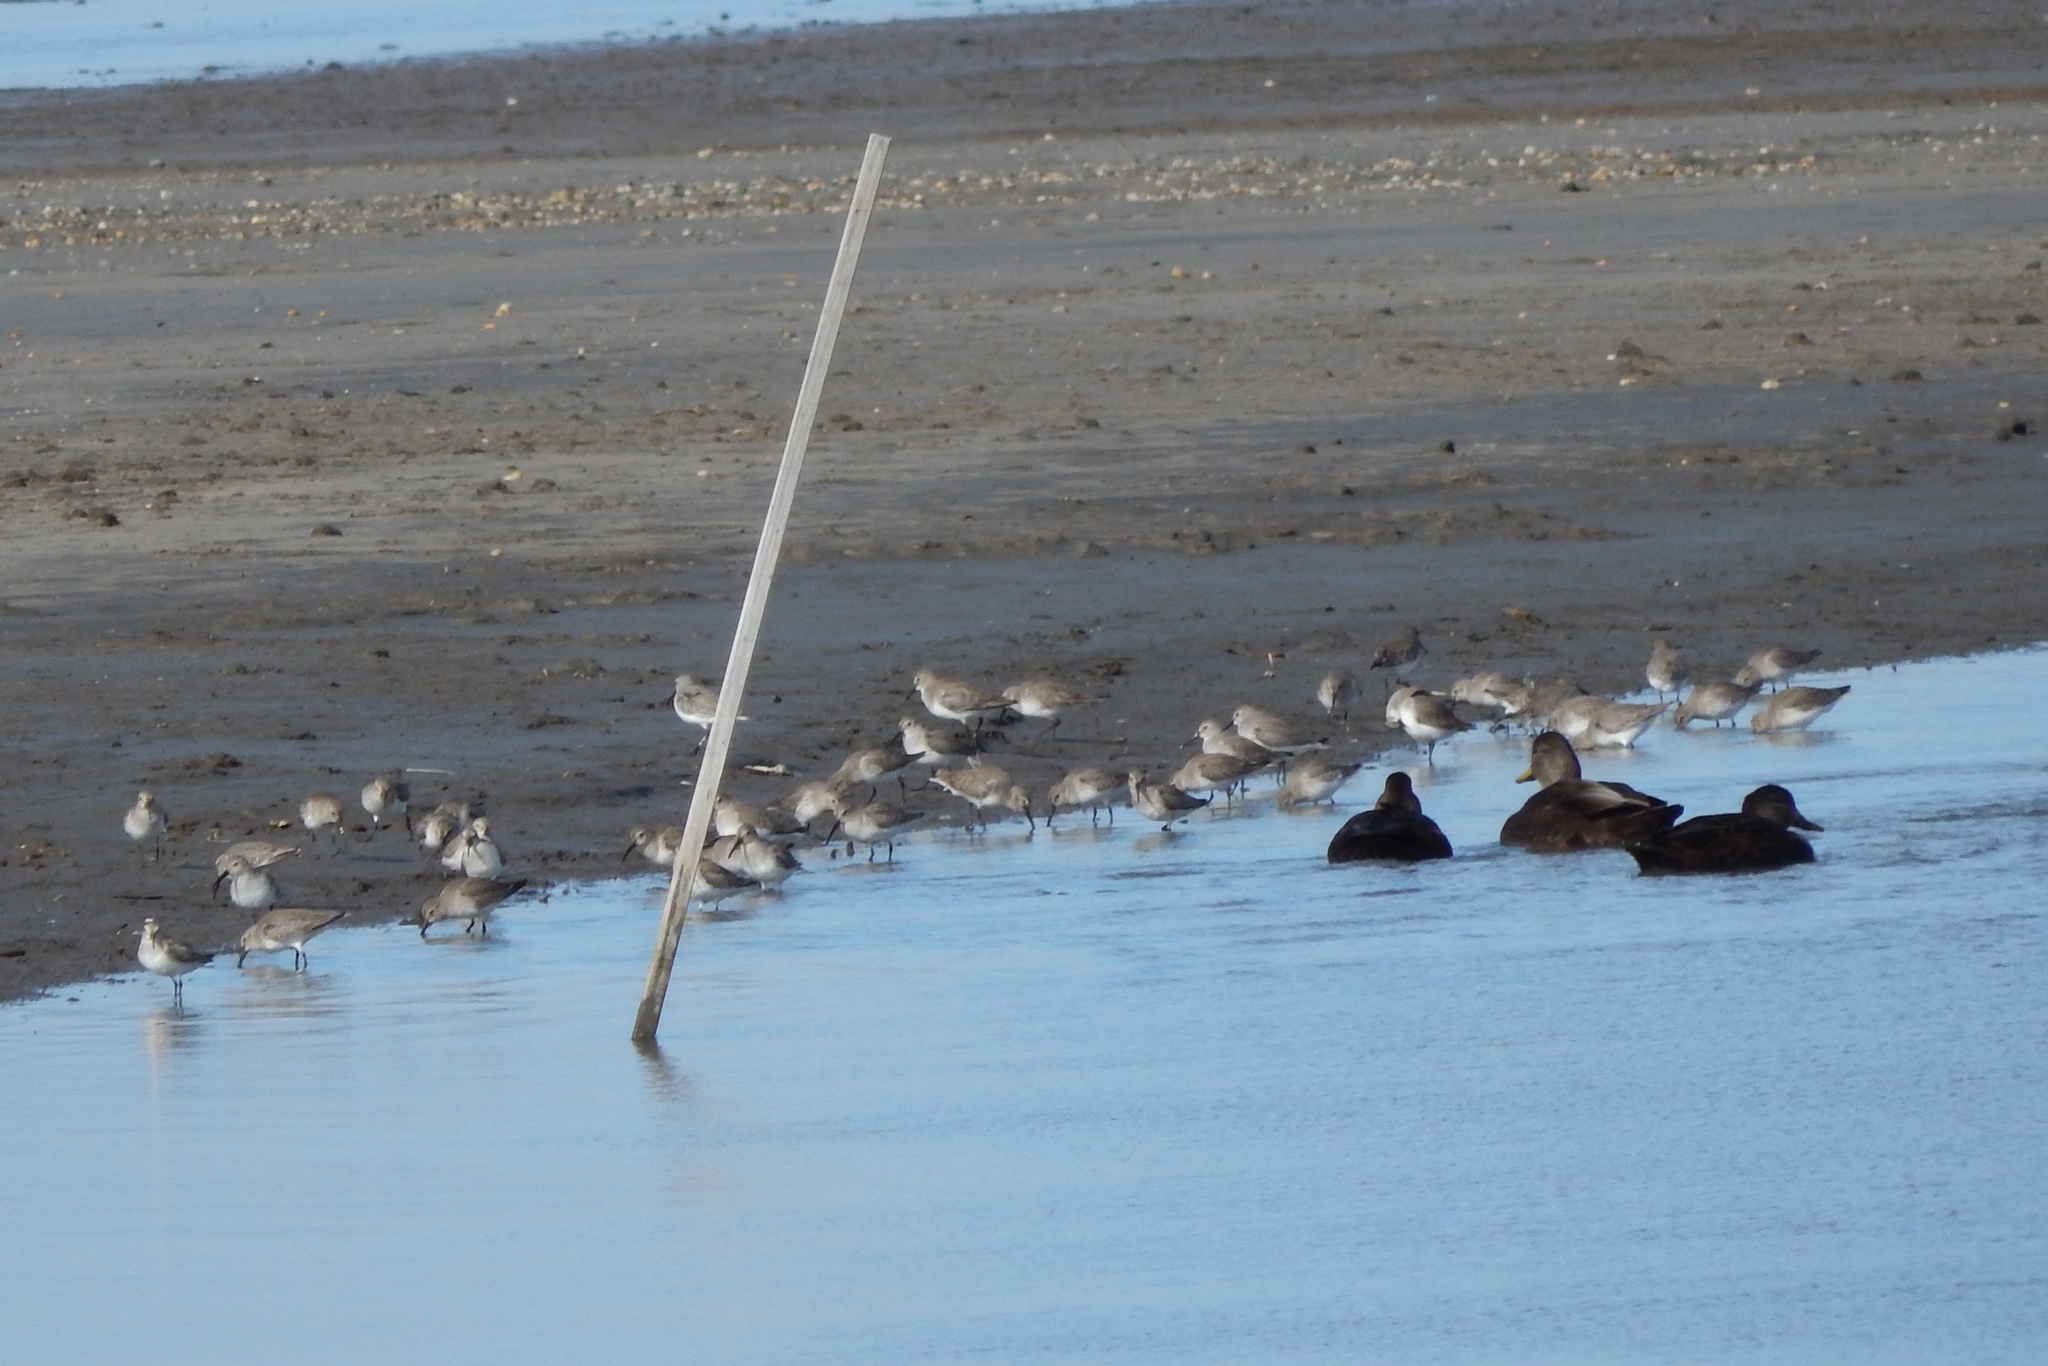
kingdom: Animalia
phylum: Chordata
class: Aves
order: Pelecaniformes
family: Ardeidae
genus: Ardea
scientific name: Ardea herodias
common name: Great blue heron
